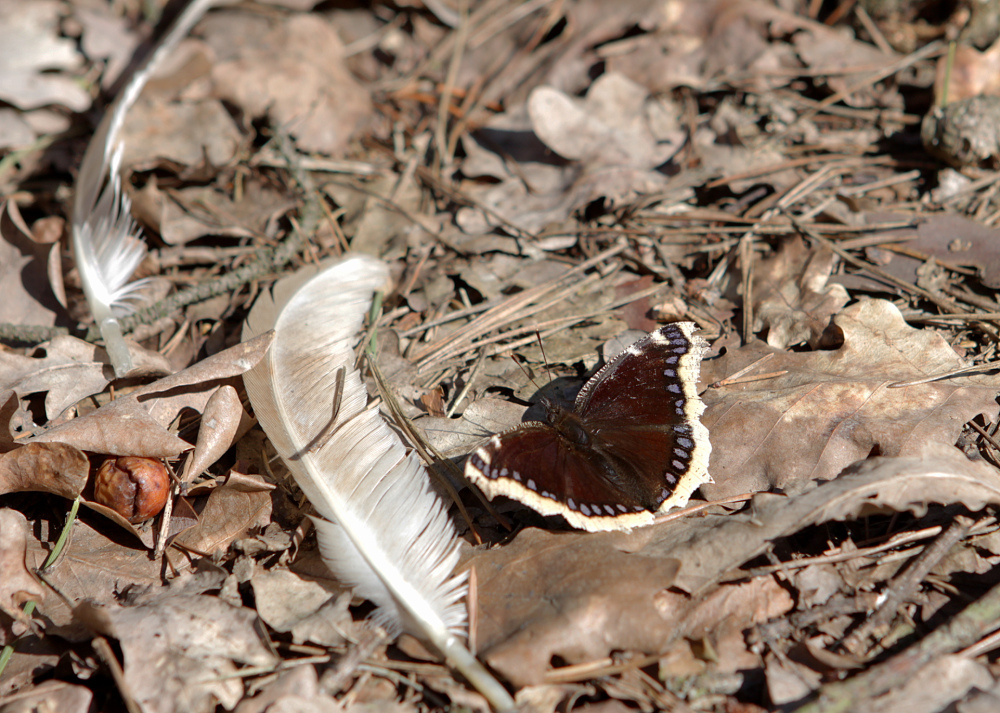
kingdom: Animalia
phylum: Arthropoda
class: Insecta
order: Lepidoptera
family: Nymphalidae
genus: Nymphalis
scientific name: Nymphalis antiopa
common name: Camberwell beauty
